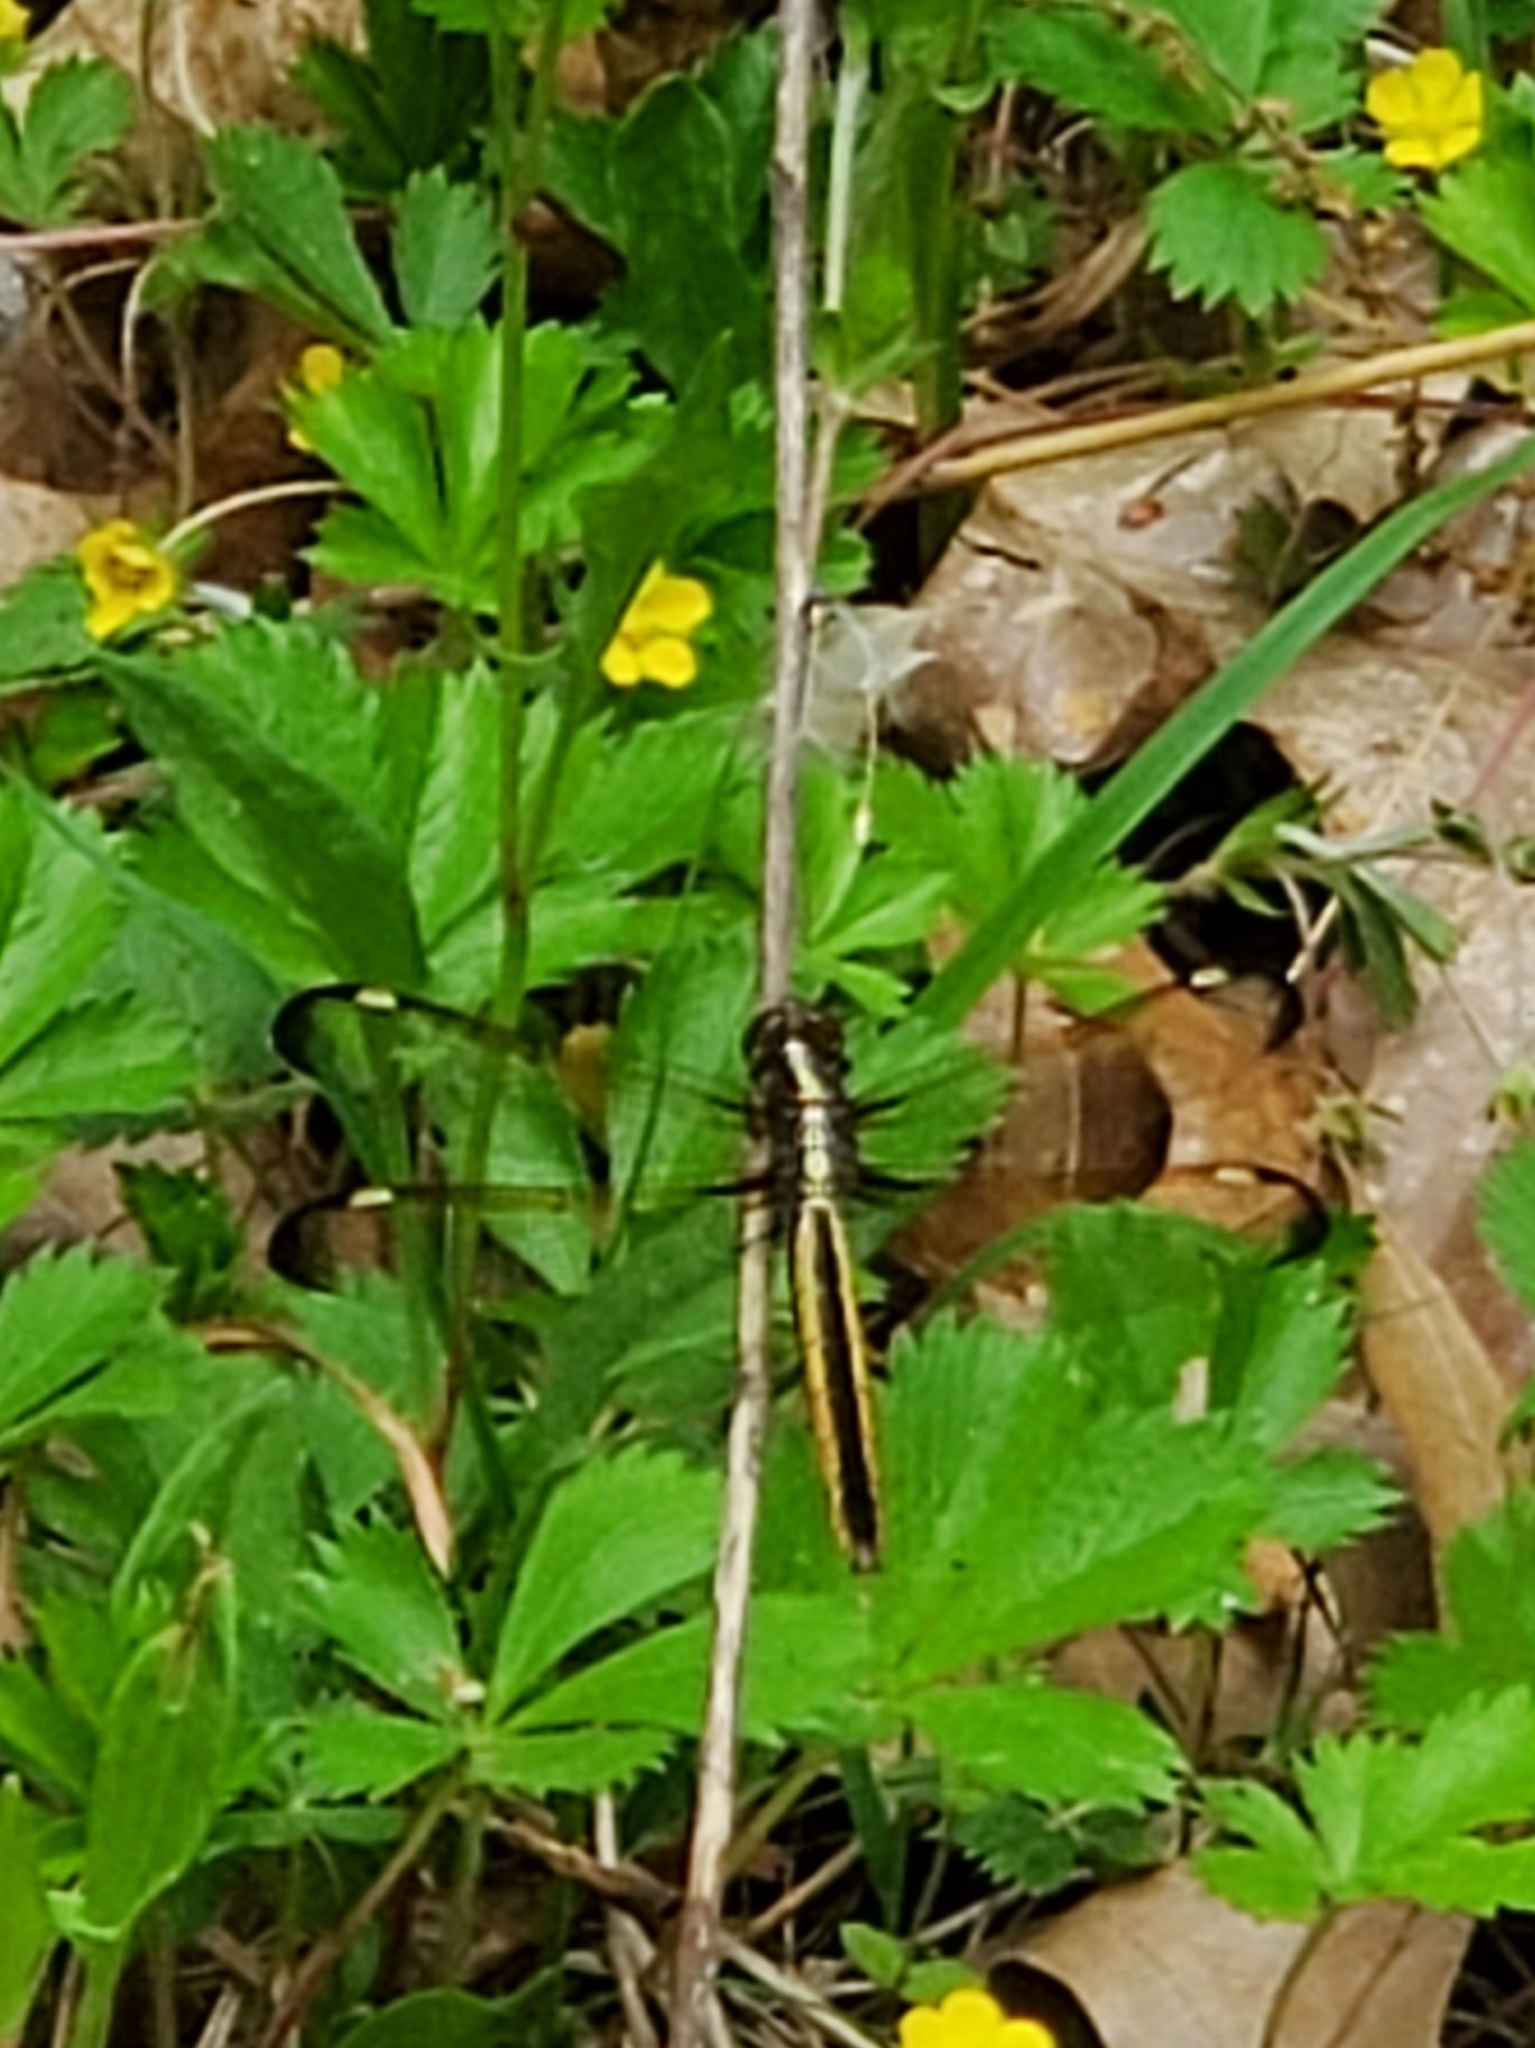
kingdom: Animalia
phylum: Arthropoda
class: Insecta
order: Odonata
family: Libellulidae
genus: Libellula
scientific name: Libellula cyanea
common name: Spangled skimmer
